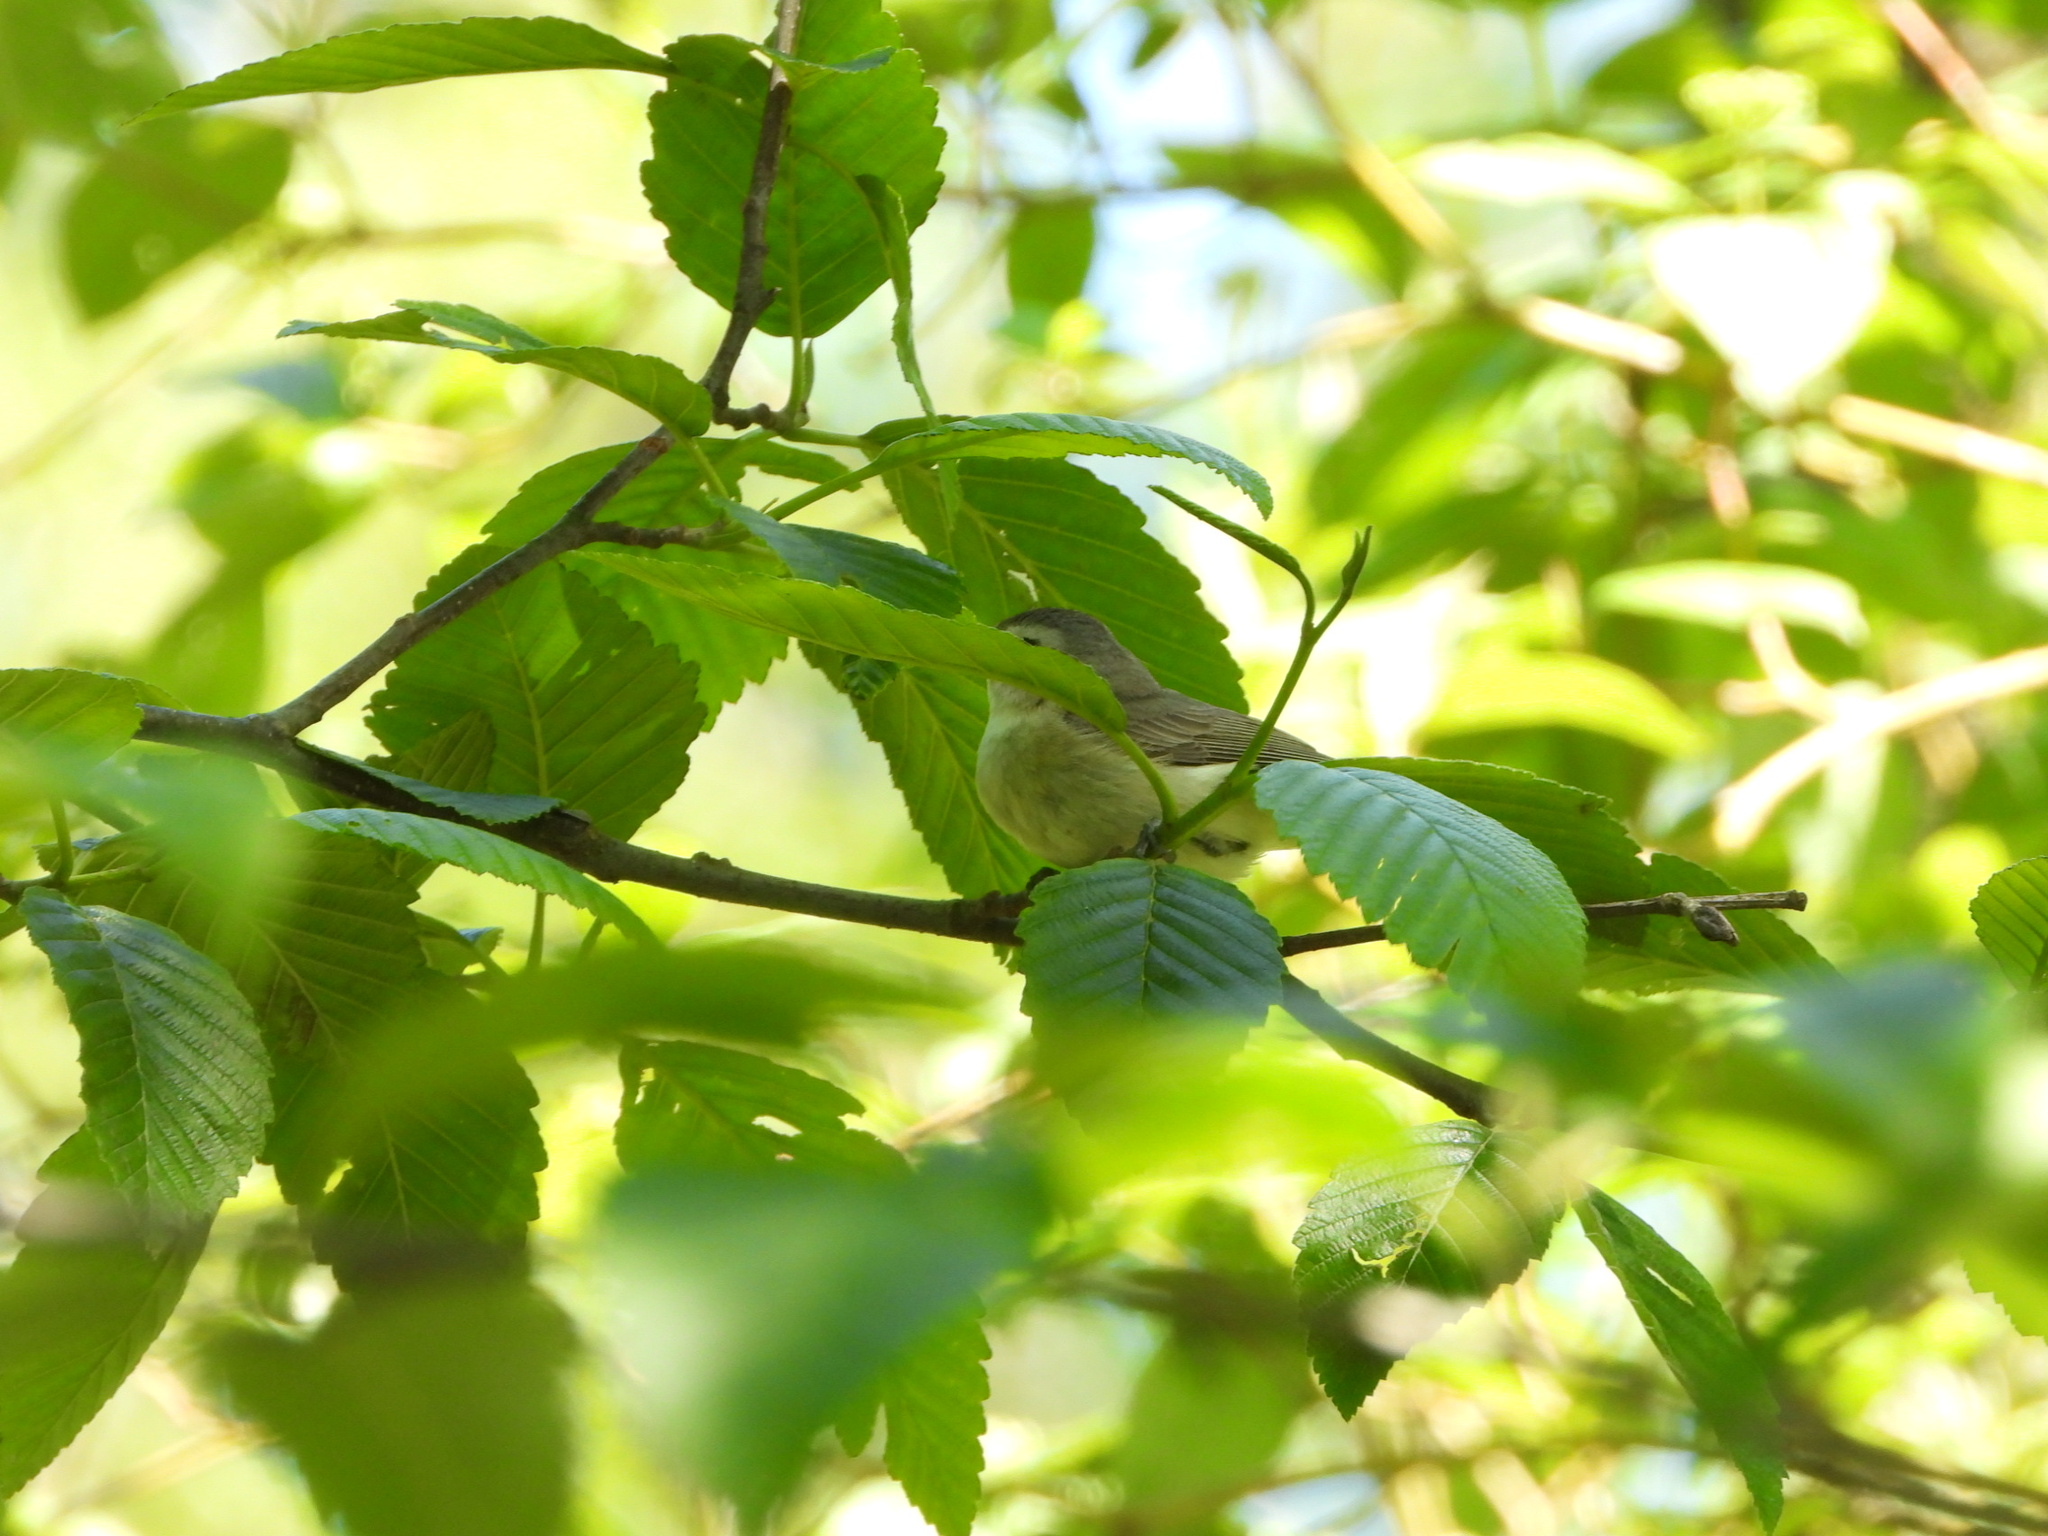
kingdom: Animalia
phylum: Chordata
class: Aves
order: Passeriformes
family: Vireonidae
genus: Vireo
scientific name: Vireo gilvus
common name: Warbling vireo
